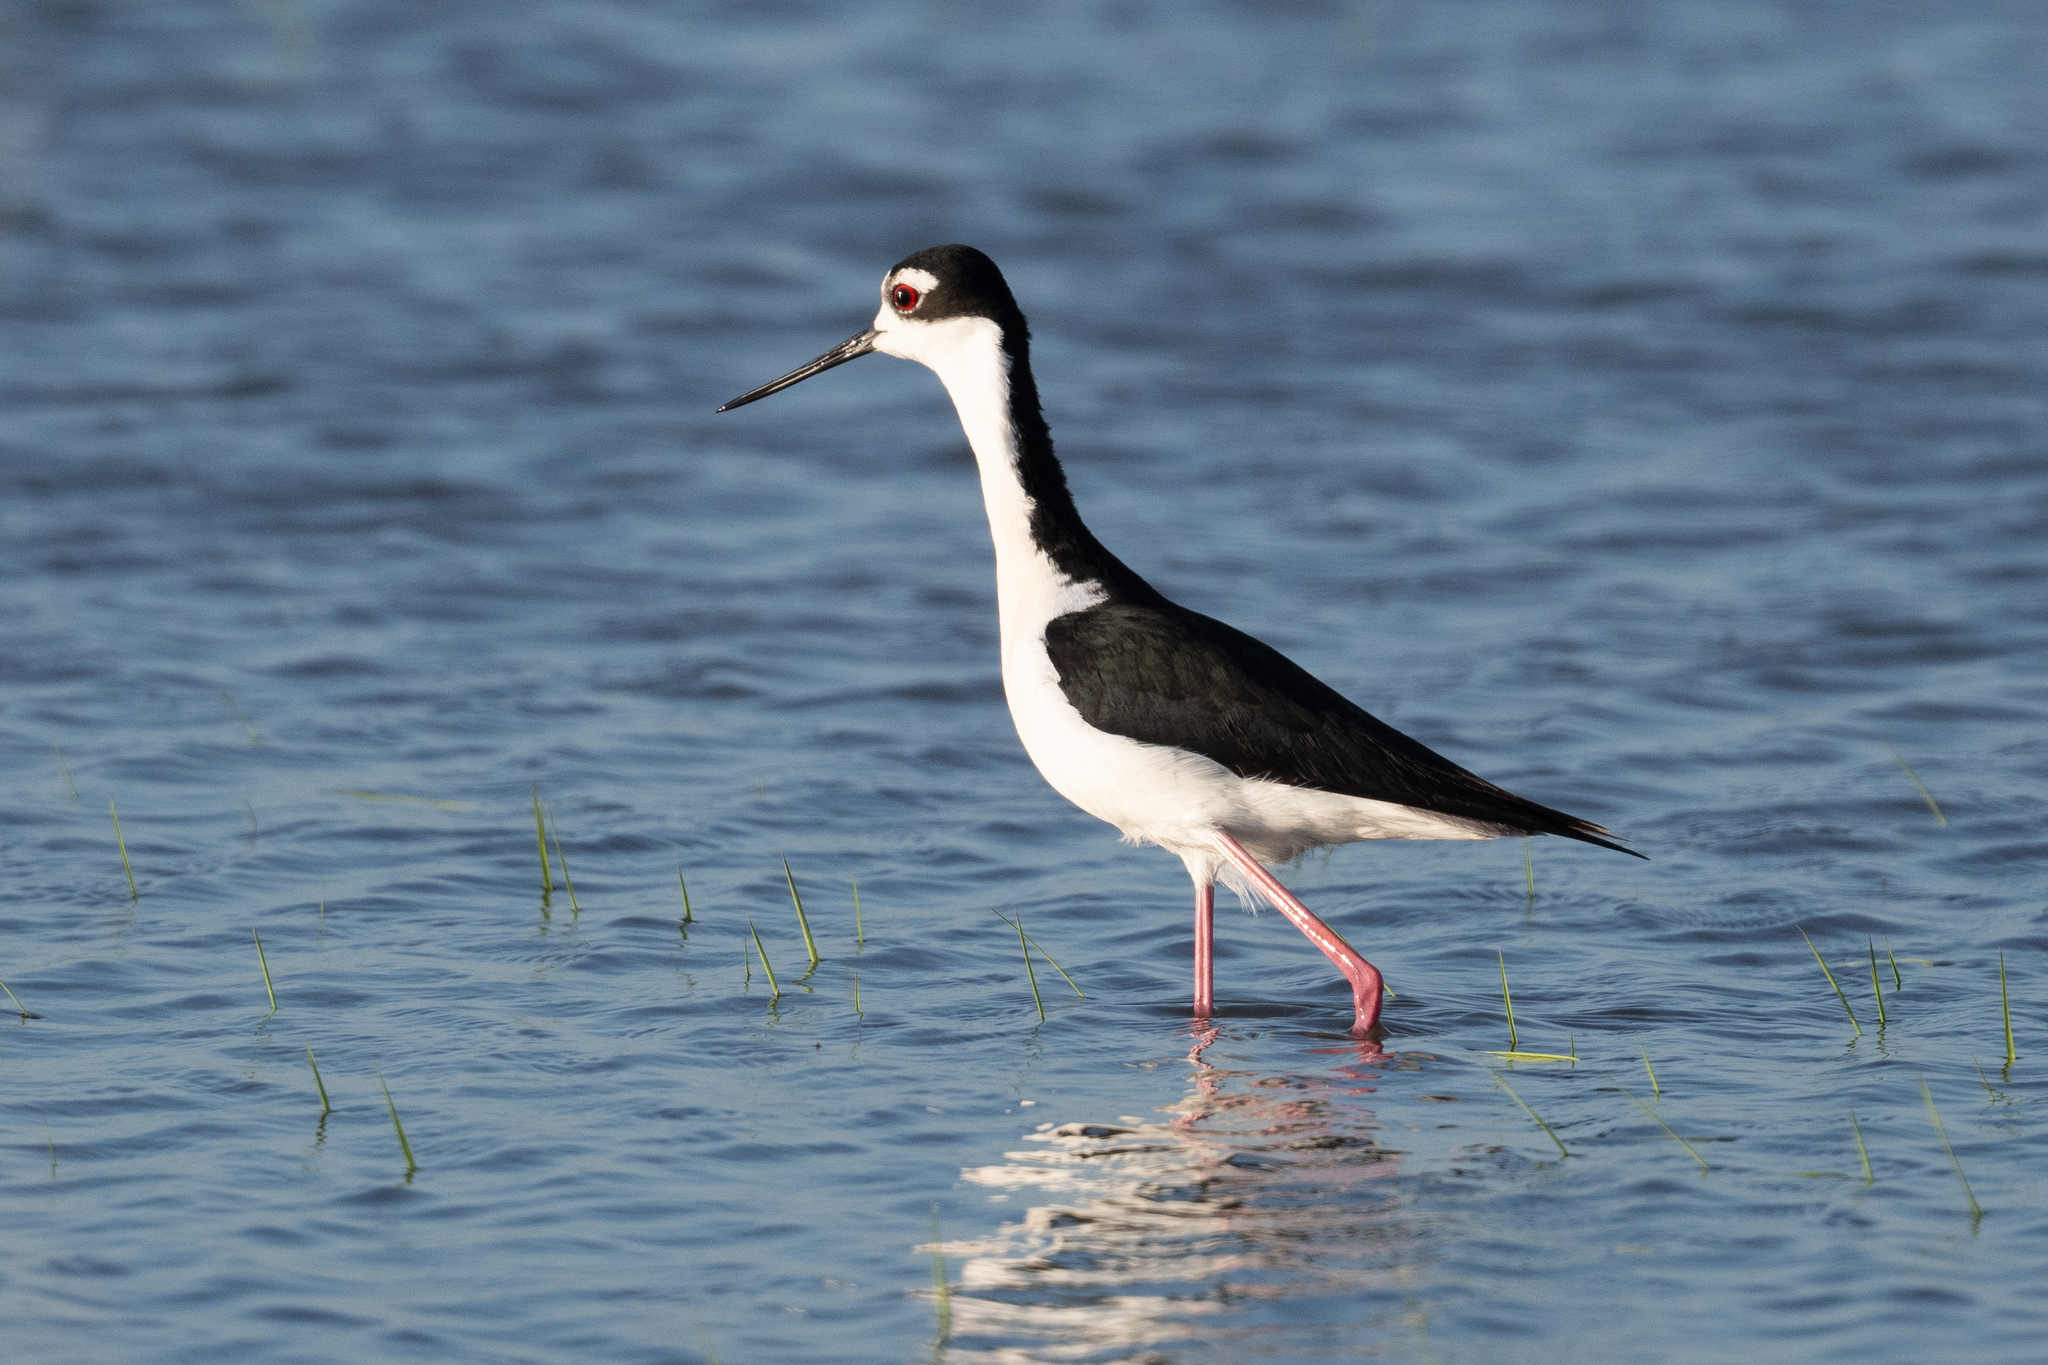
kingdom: Animalia
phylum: Chordata
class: Aves
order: Charadriiformes
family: Recurvirostridae
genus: Himantopus
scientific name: Himantopus mexicanus
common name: Black-necked stilt
